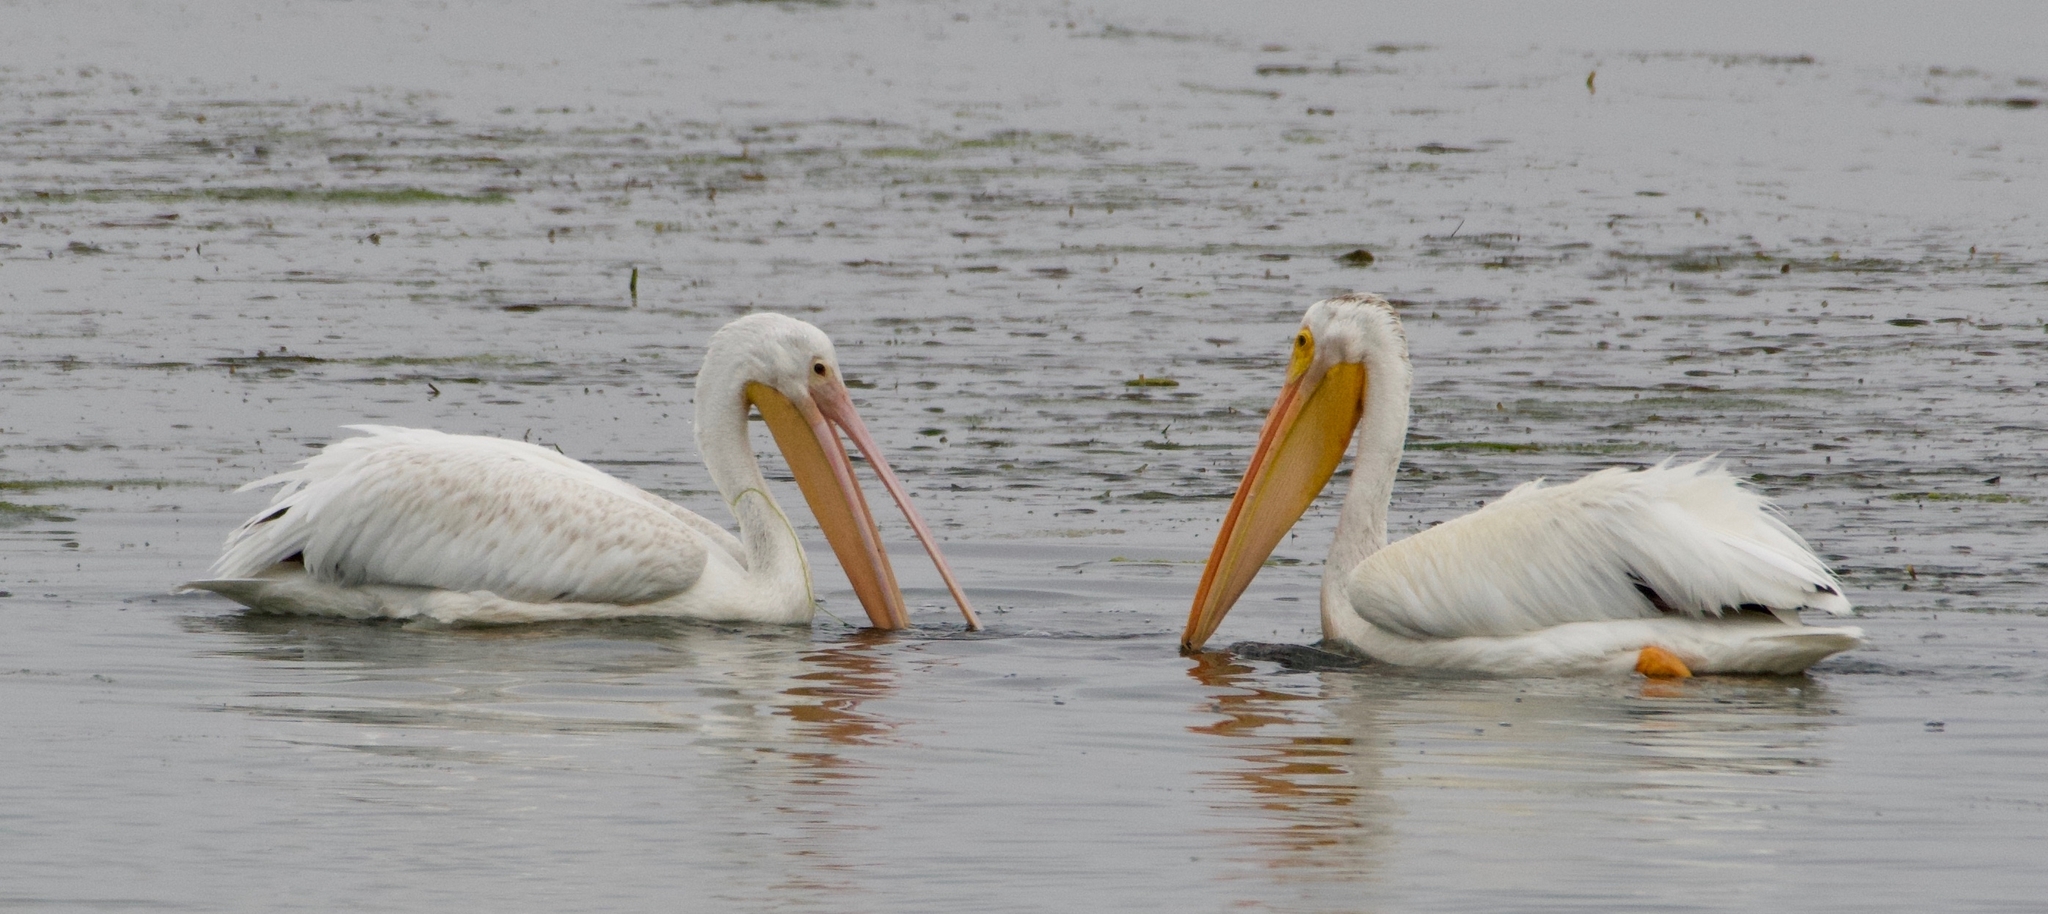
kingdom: Animalia
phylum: Chordata
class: Aves
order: Pelecaniformes
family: Pelecanidae
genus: Pelecanus
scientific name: Pelecanus erythrorhynchos
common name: American white pelican
